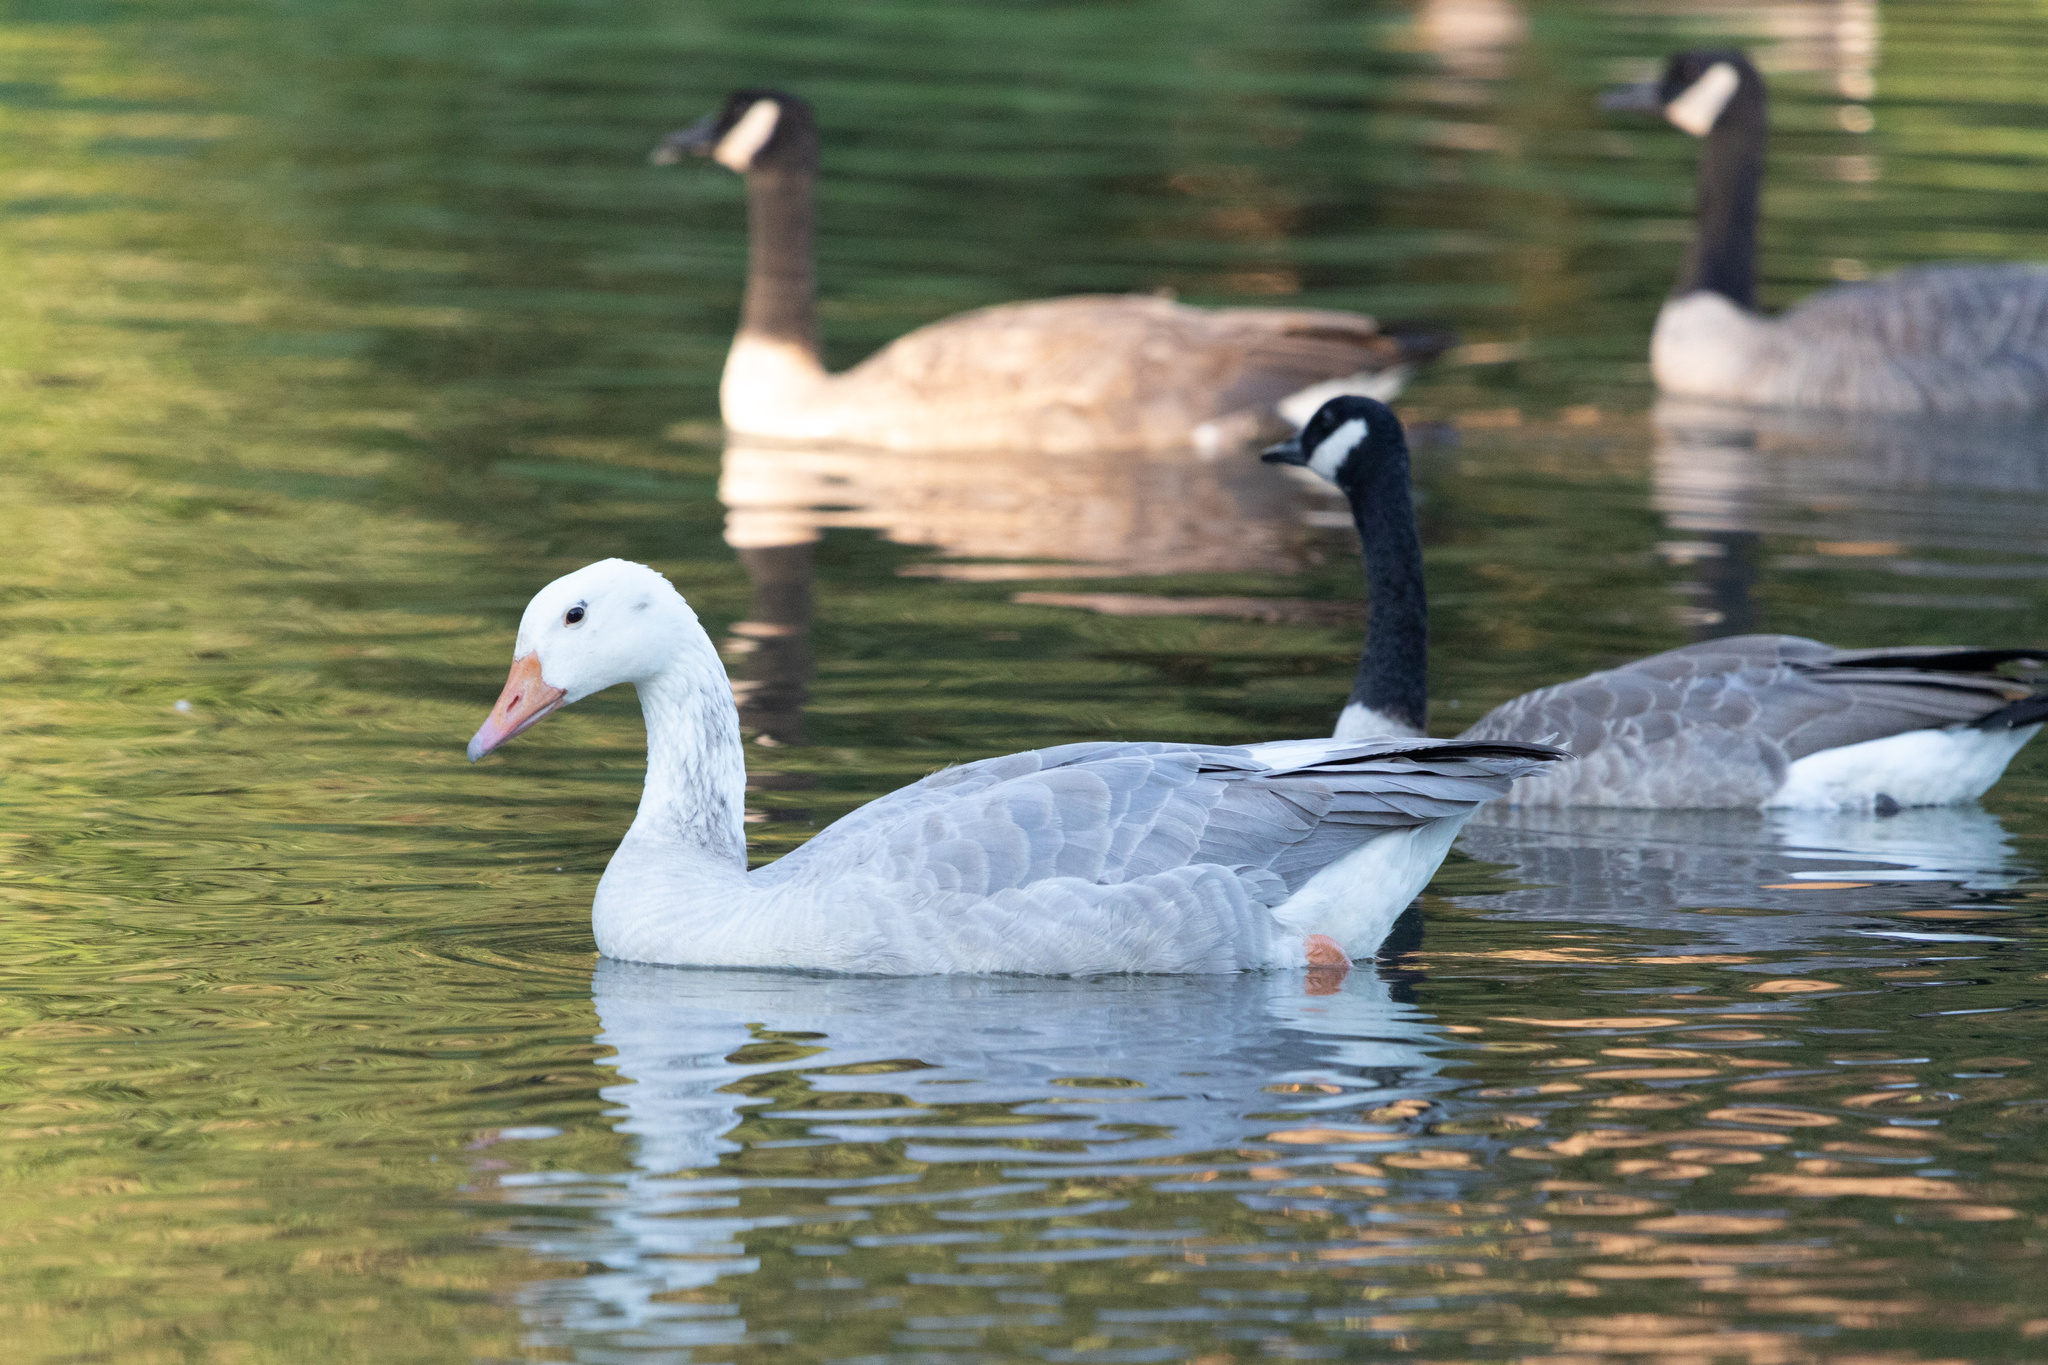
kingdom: Animalia
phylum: Chordata
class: Aves
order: Anseriformes
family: Anatidae
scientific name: Anatidae
